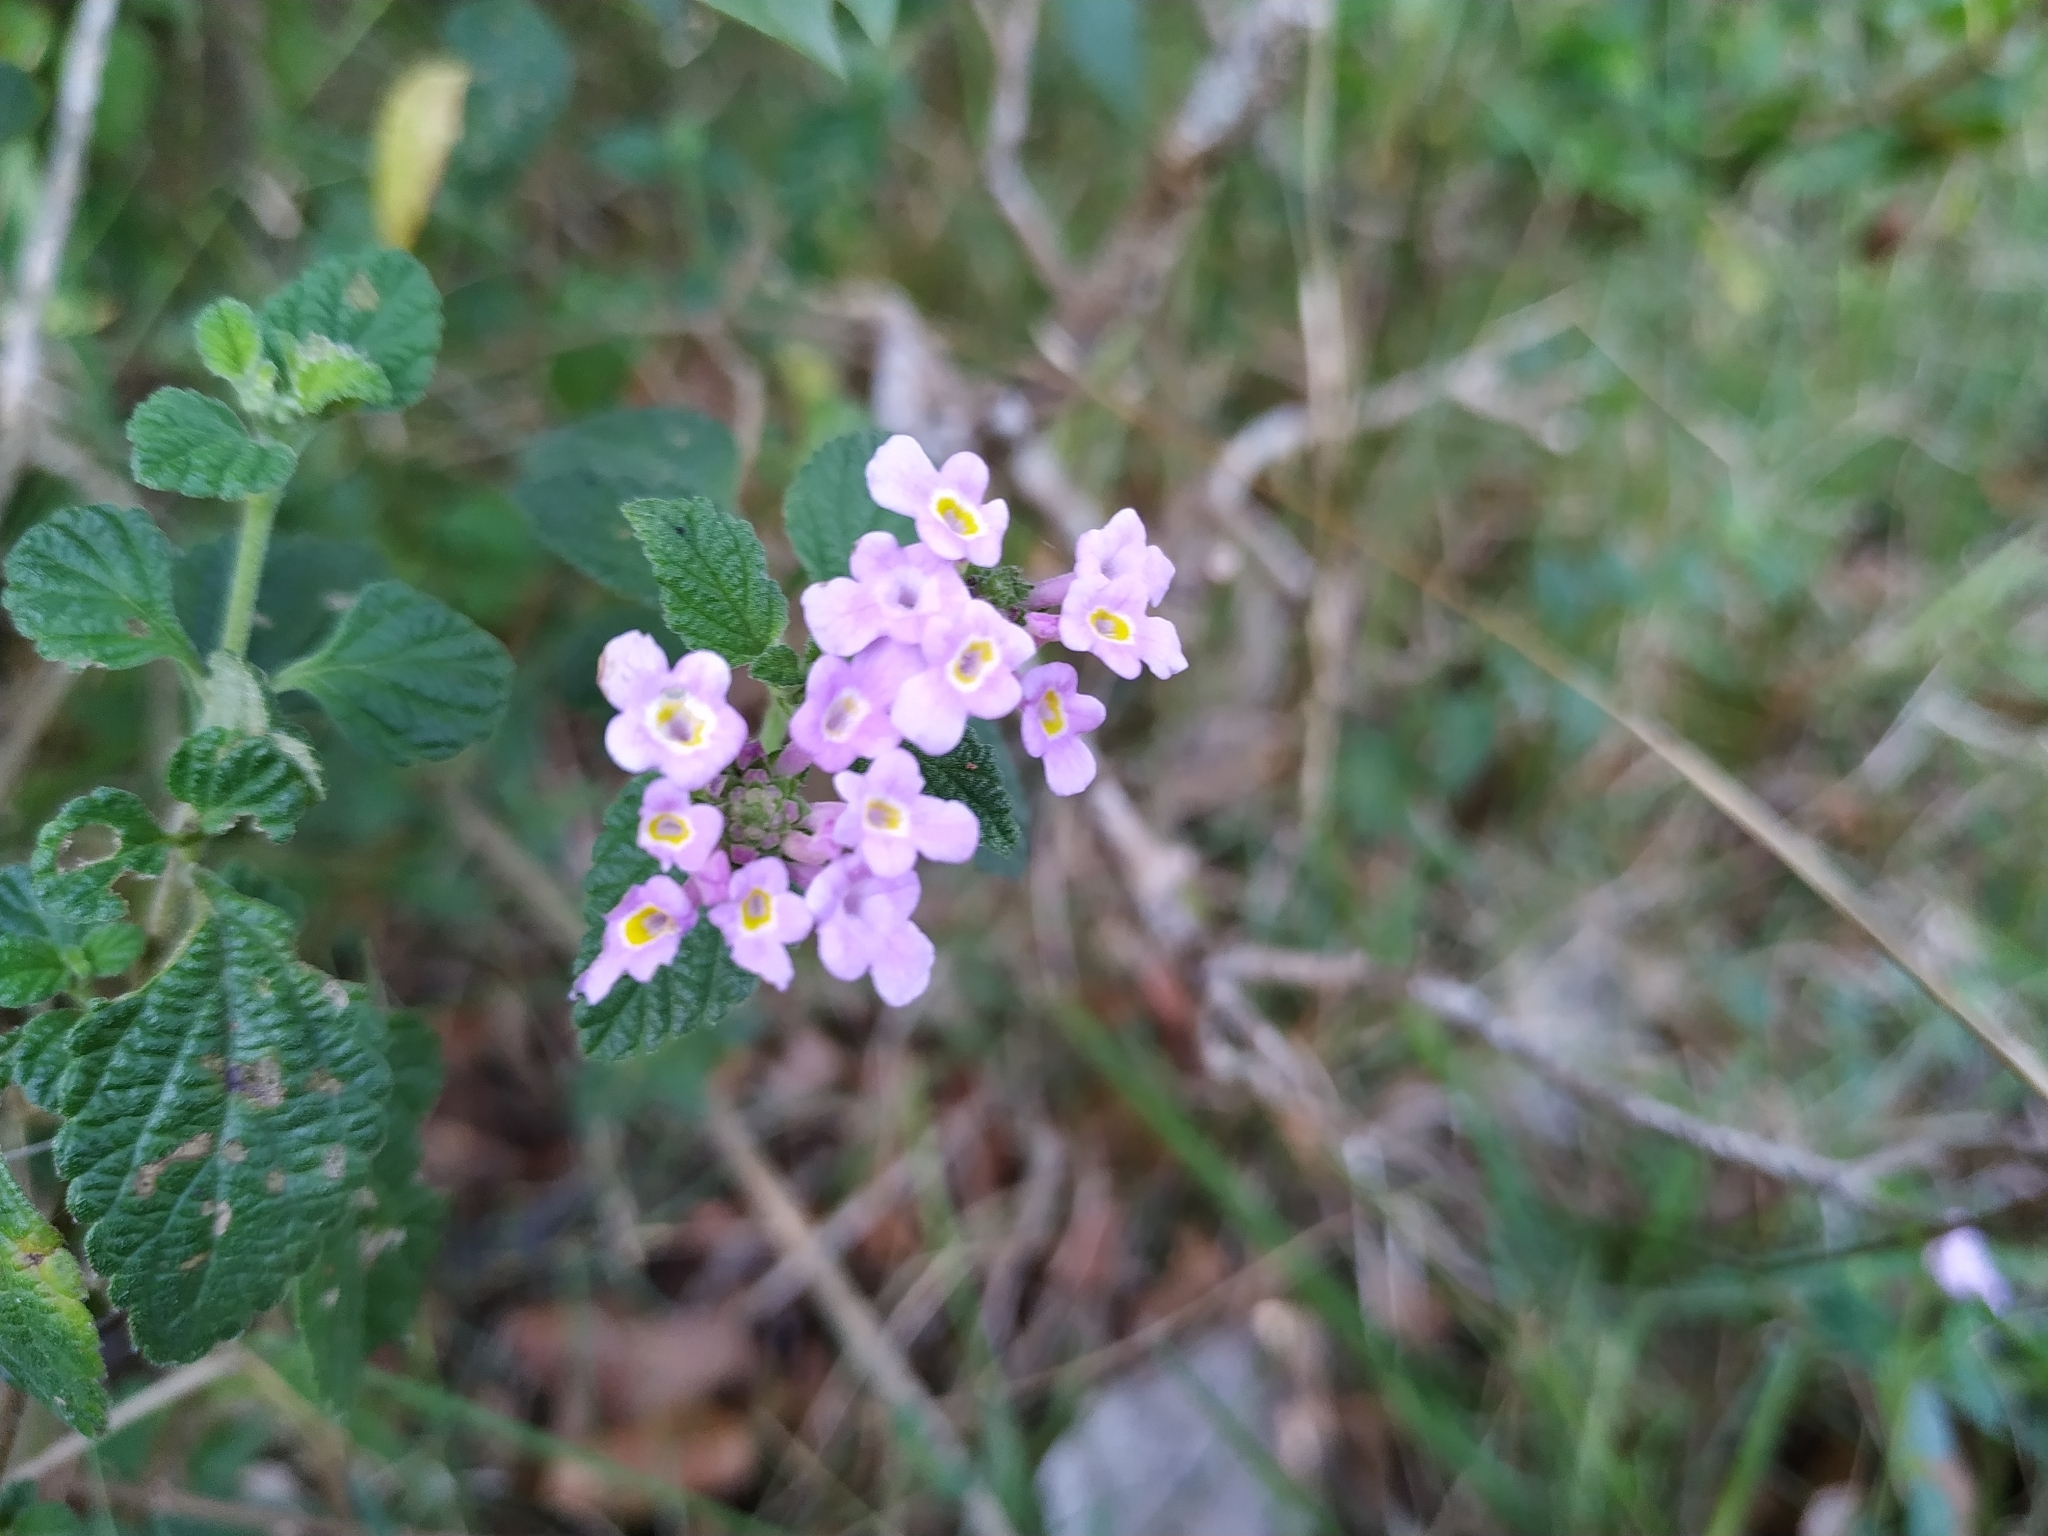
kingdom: Plantae
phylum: Tracheophyta
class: Magnoliopsida
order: Lamiales
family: Verbenaceae
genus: Lantana
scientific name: Lantana montevidensis
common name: Trailing shrubverbena
